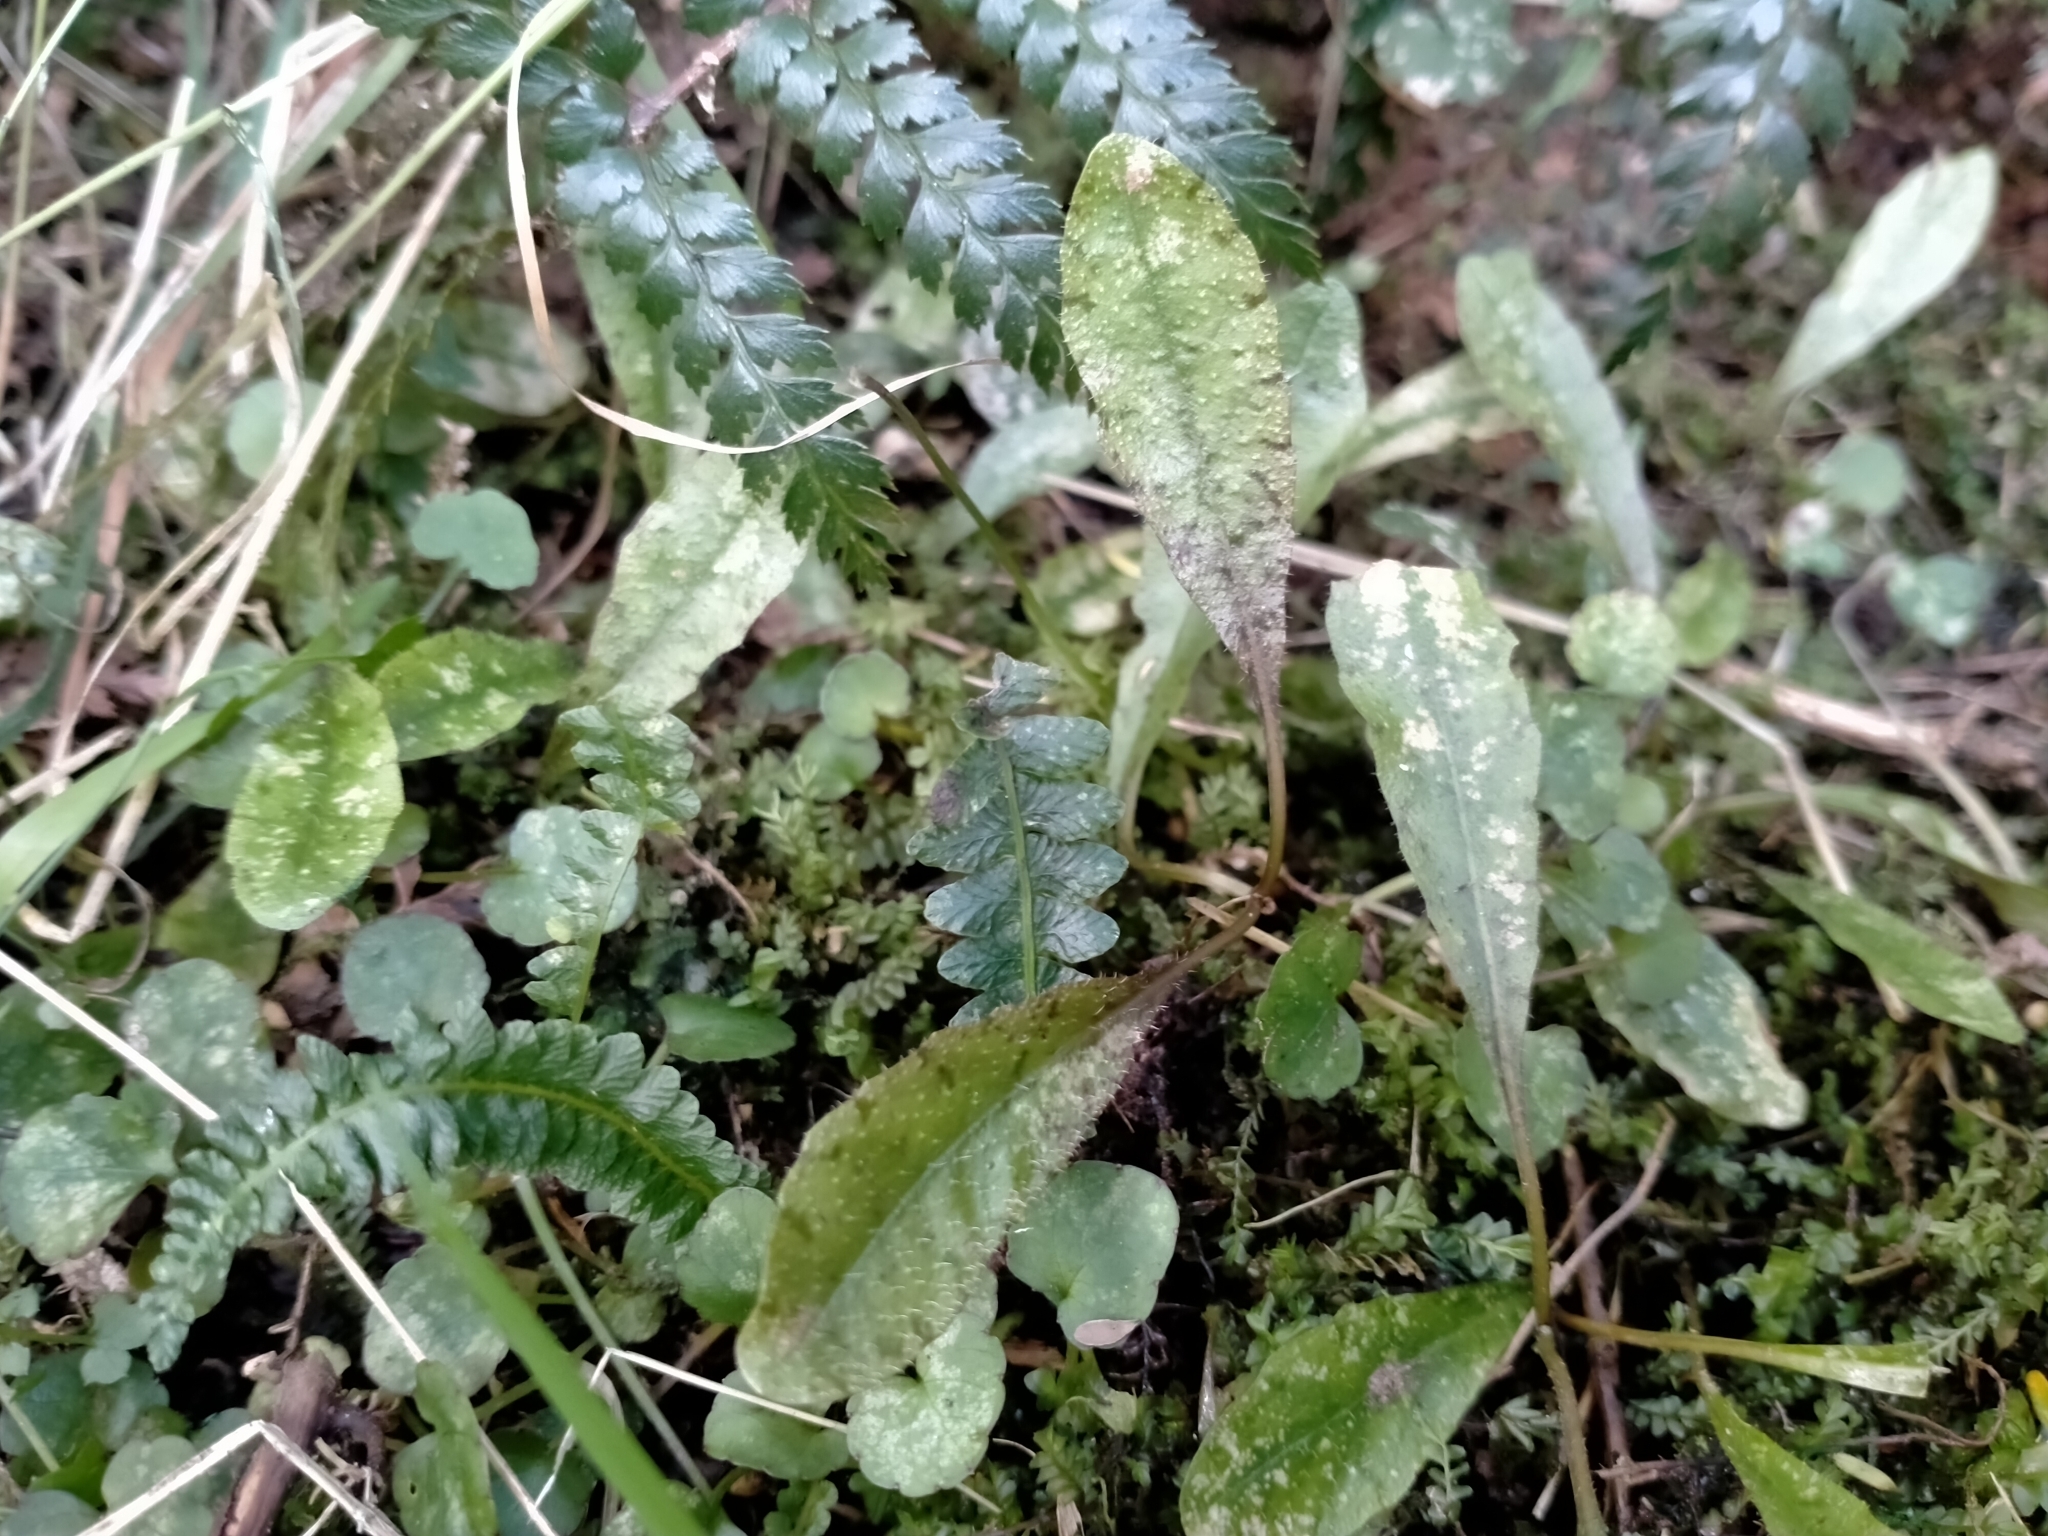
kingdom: Plantae
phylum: Tracheophyta
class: Magnoliopsida
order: Lamiales
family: Mazaceae
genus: Mazus
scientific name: Mazus radicans
